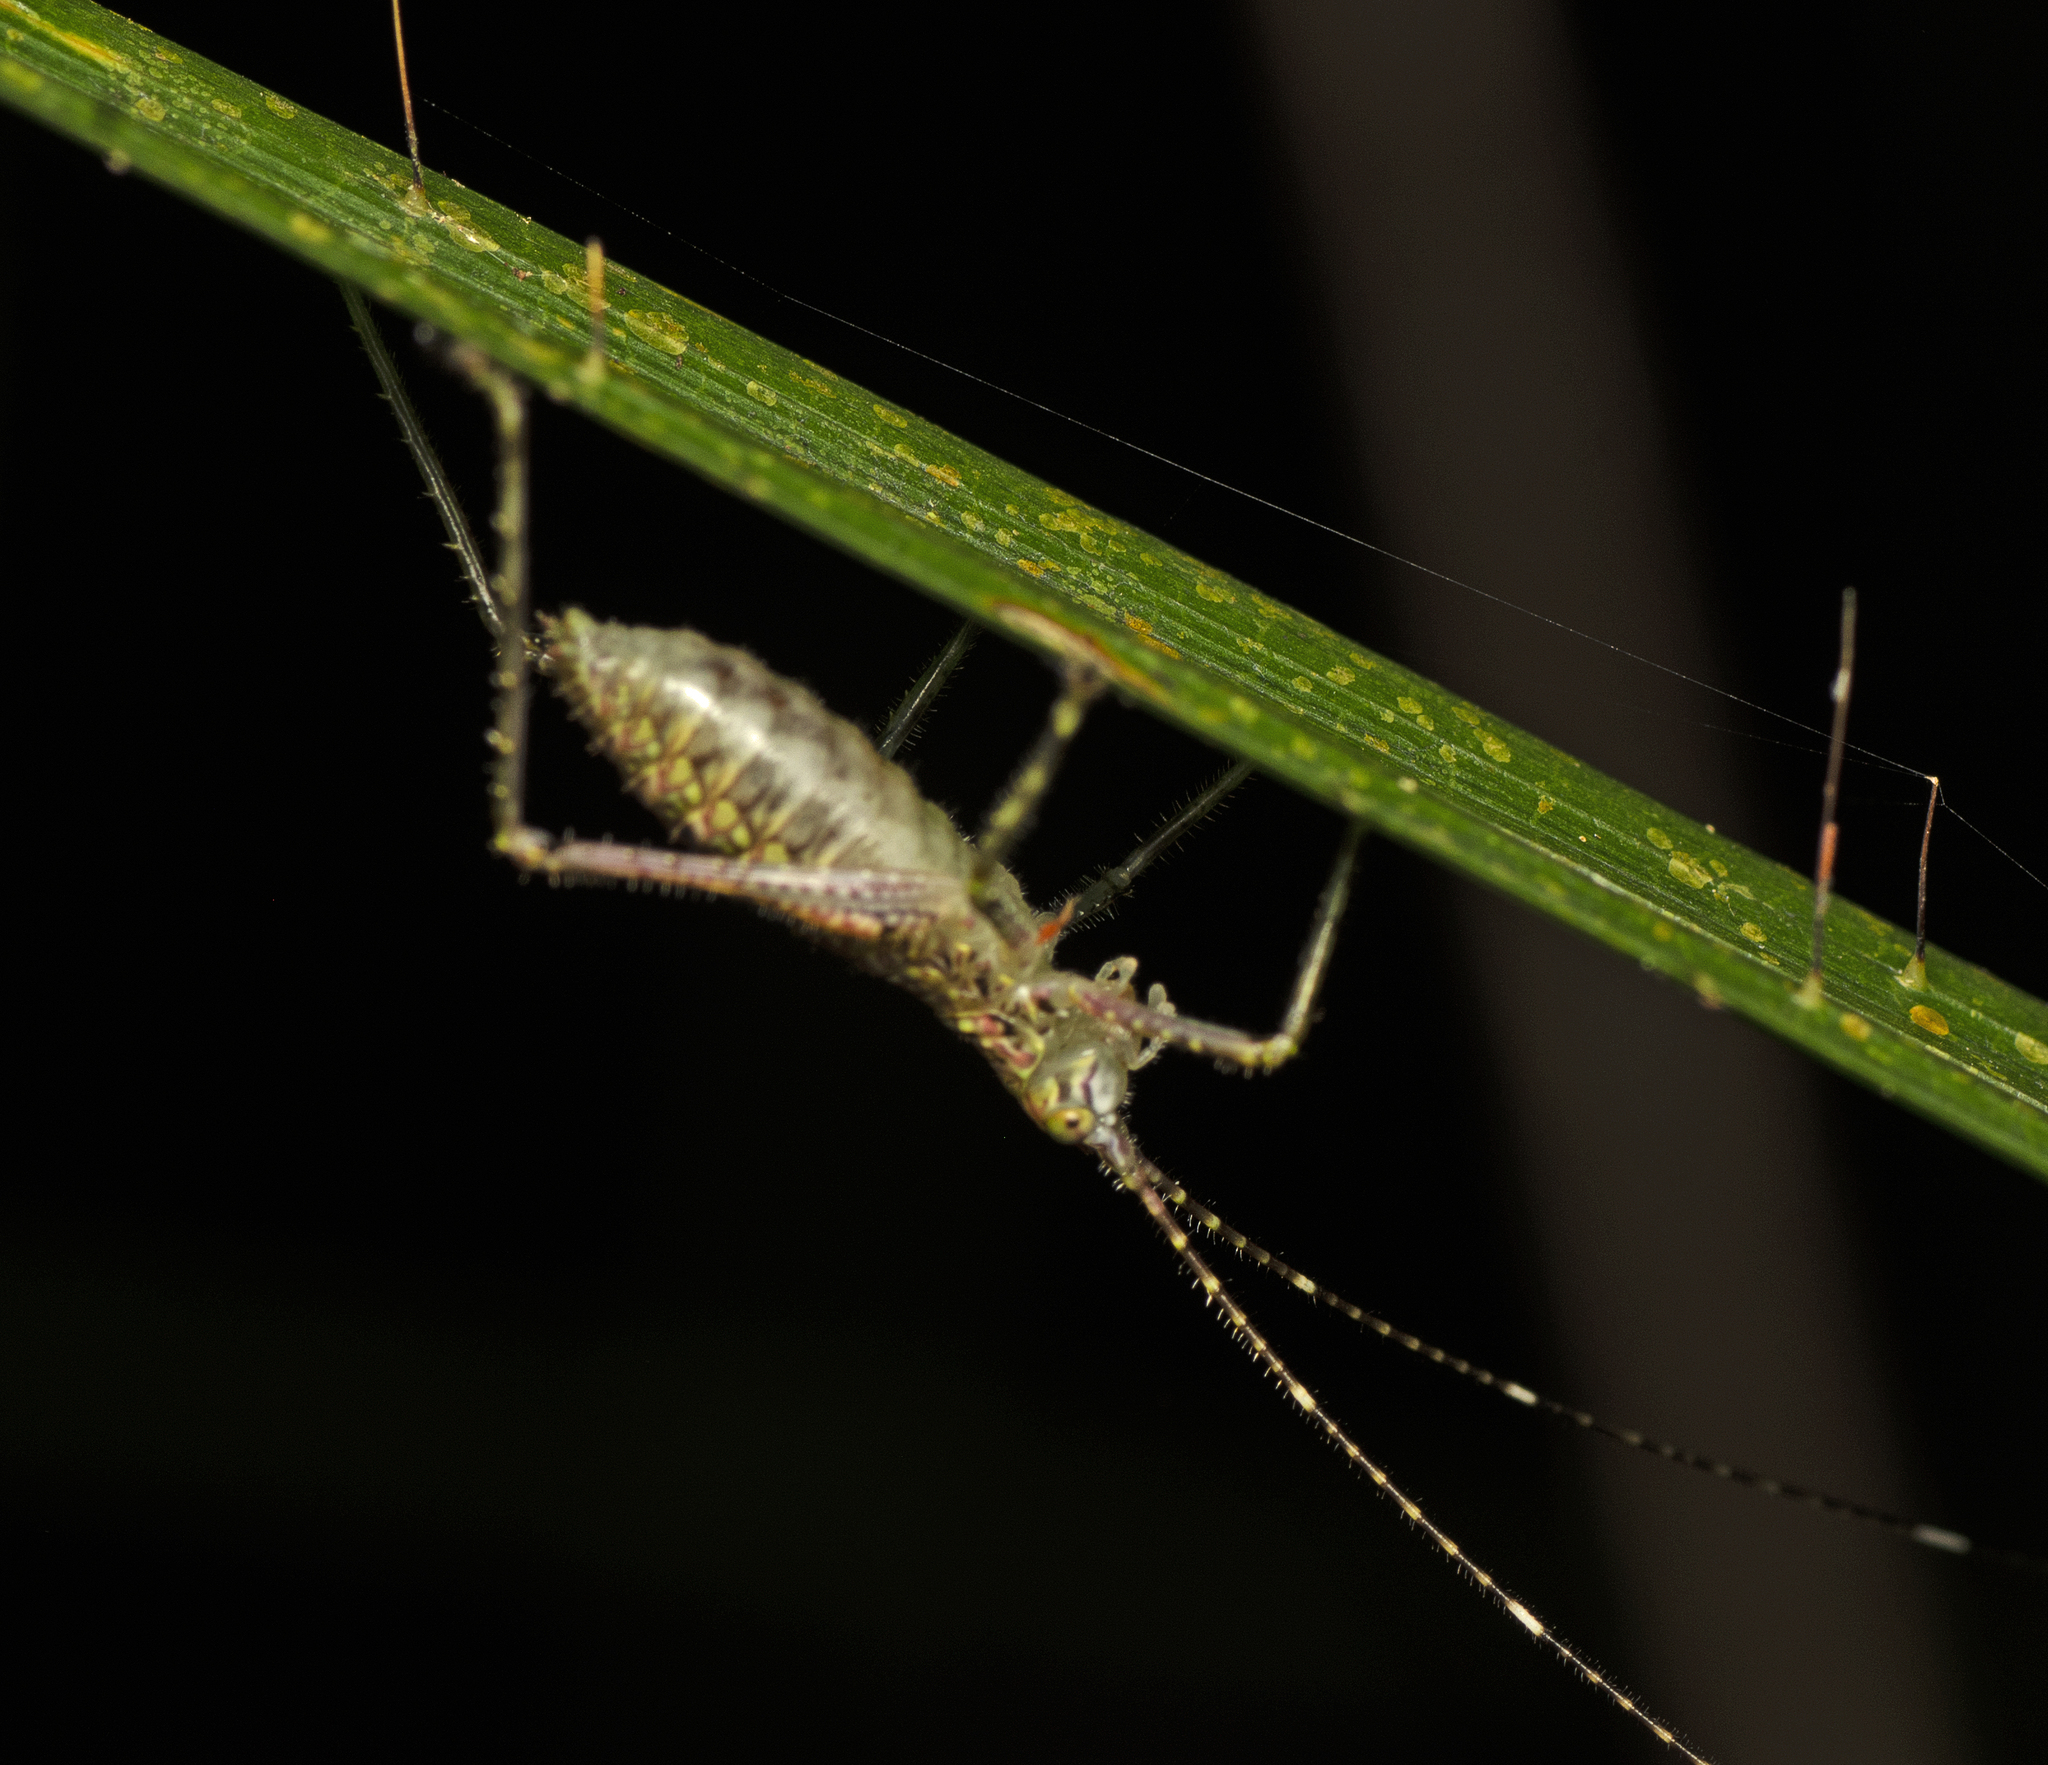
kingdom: Animalia
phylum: Arthropoda
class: Insecta
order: Orthoptera
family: Tettigoniidae
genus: Phricta
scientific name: Phricta spinosa
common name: Giant spiny forest katydid
